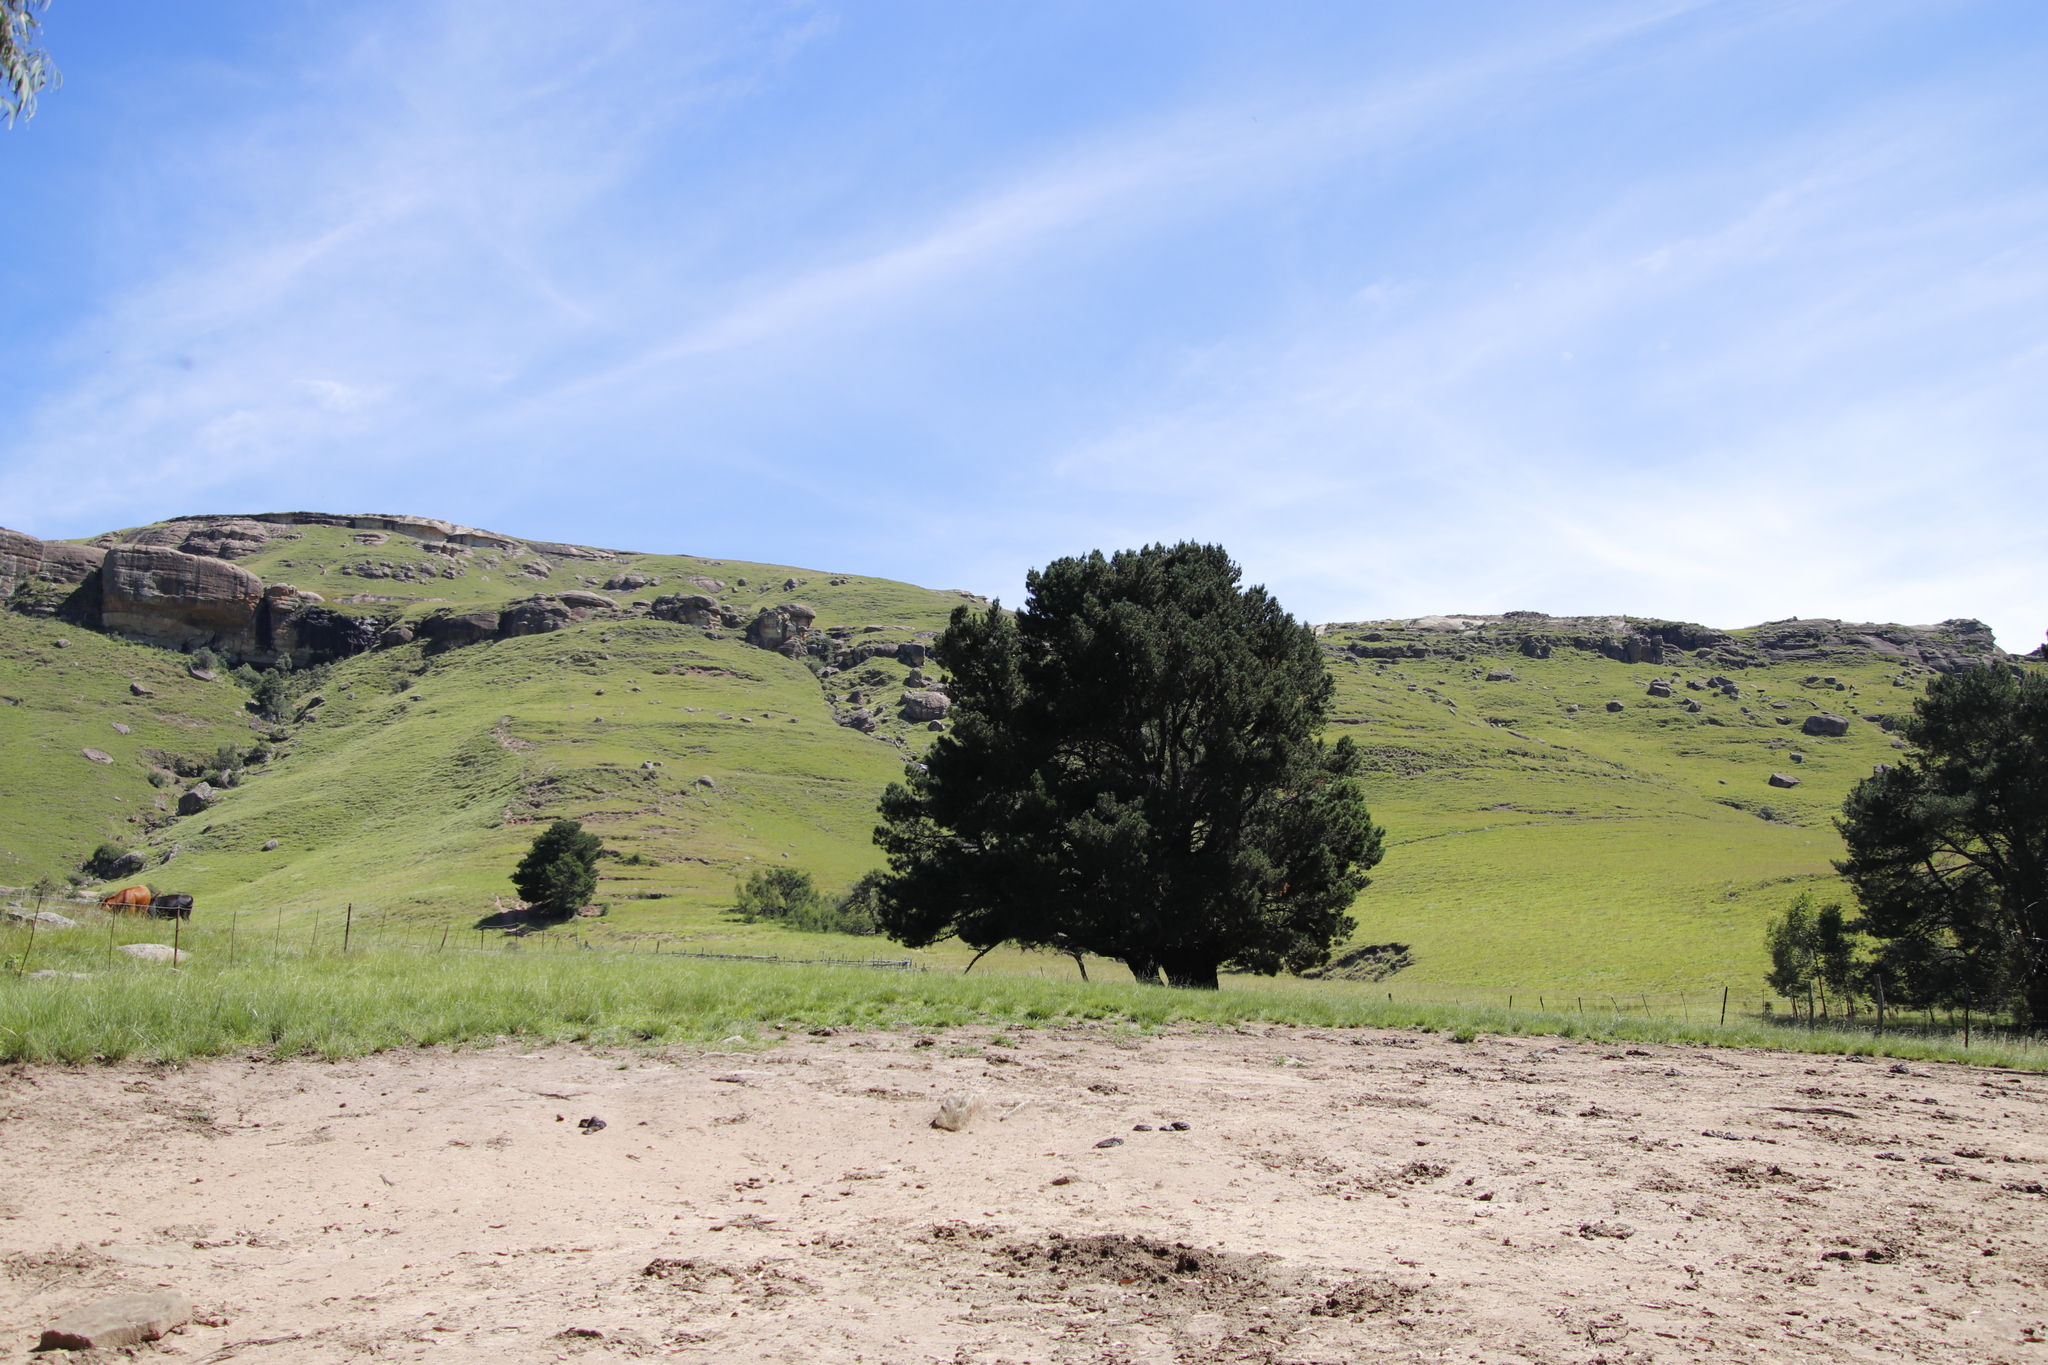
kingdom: Plantae
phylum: Tracheophyta
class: Pinopsida
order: Pinales
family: Pinaceae
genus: Pinus
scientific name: Pinus radiata
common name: Monterey pine
